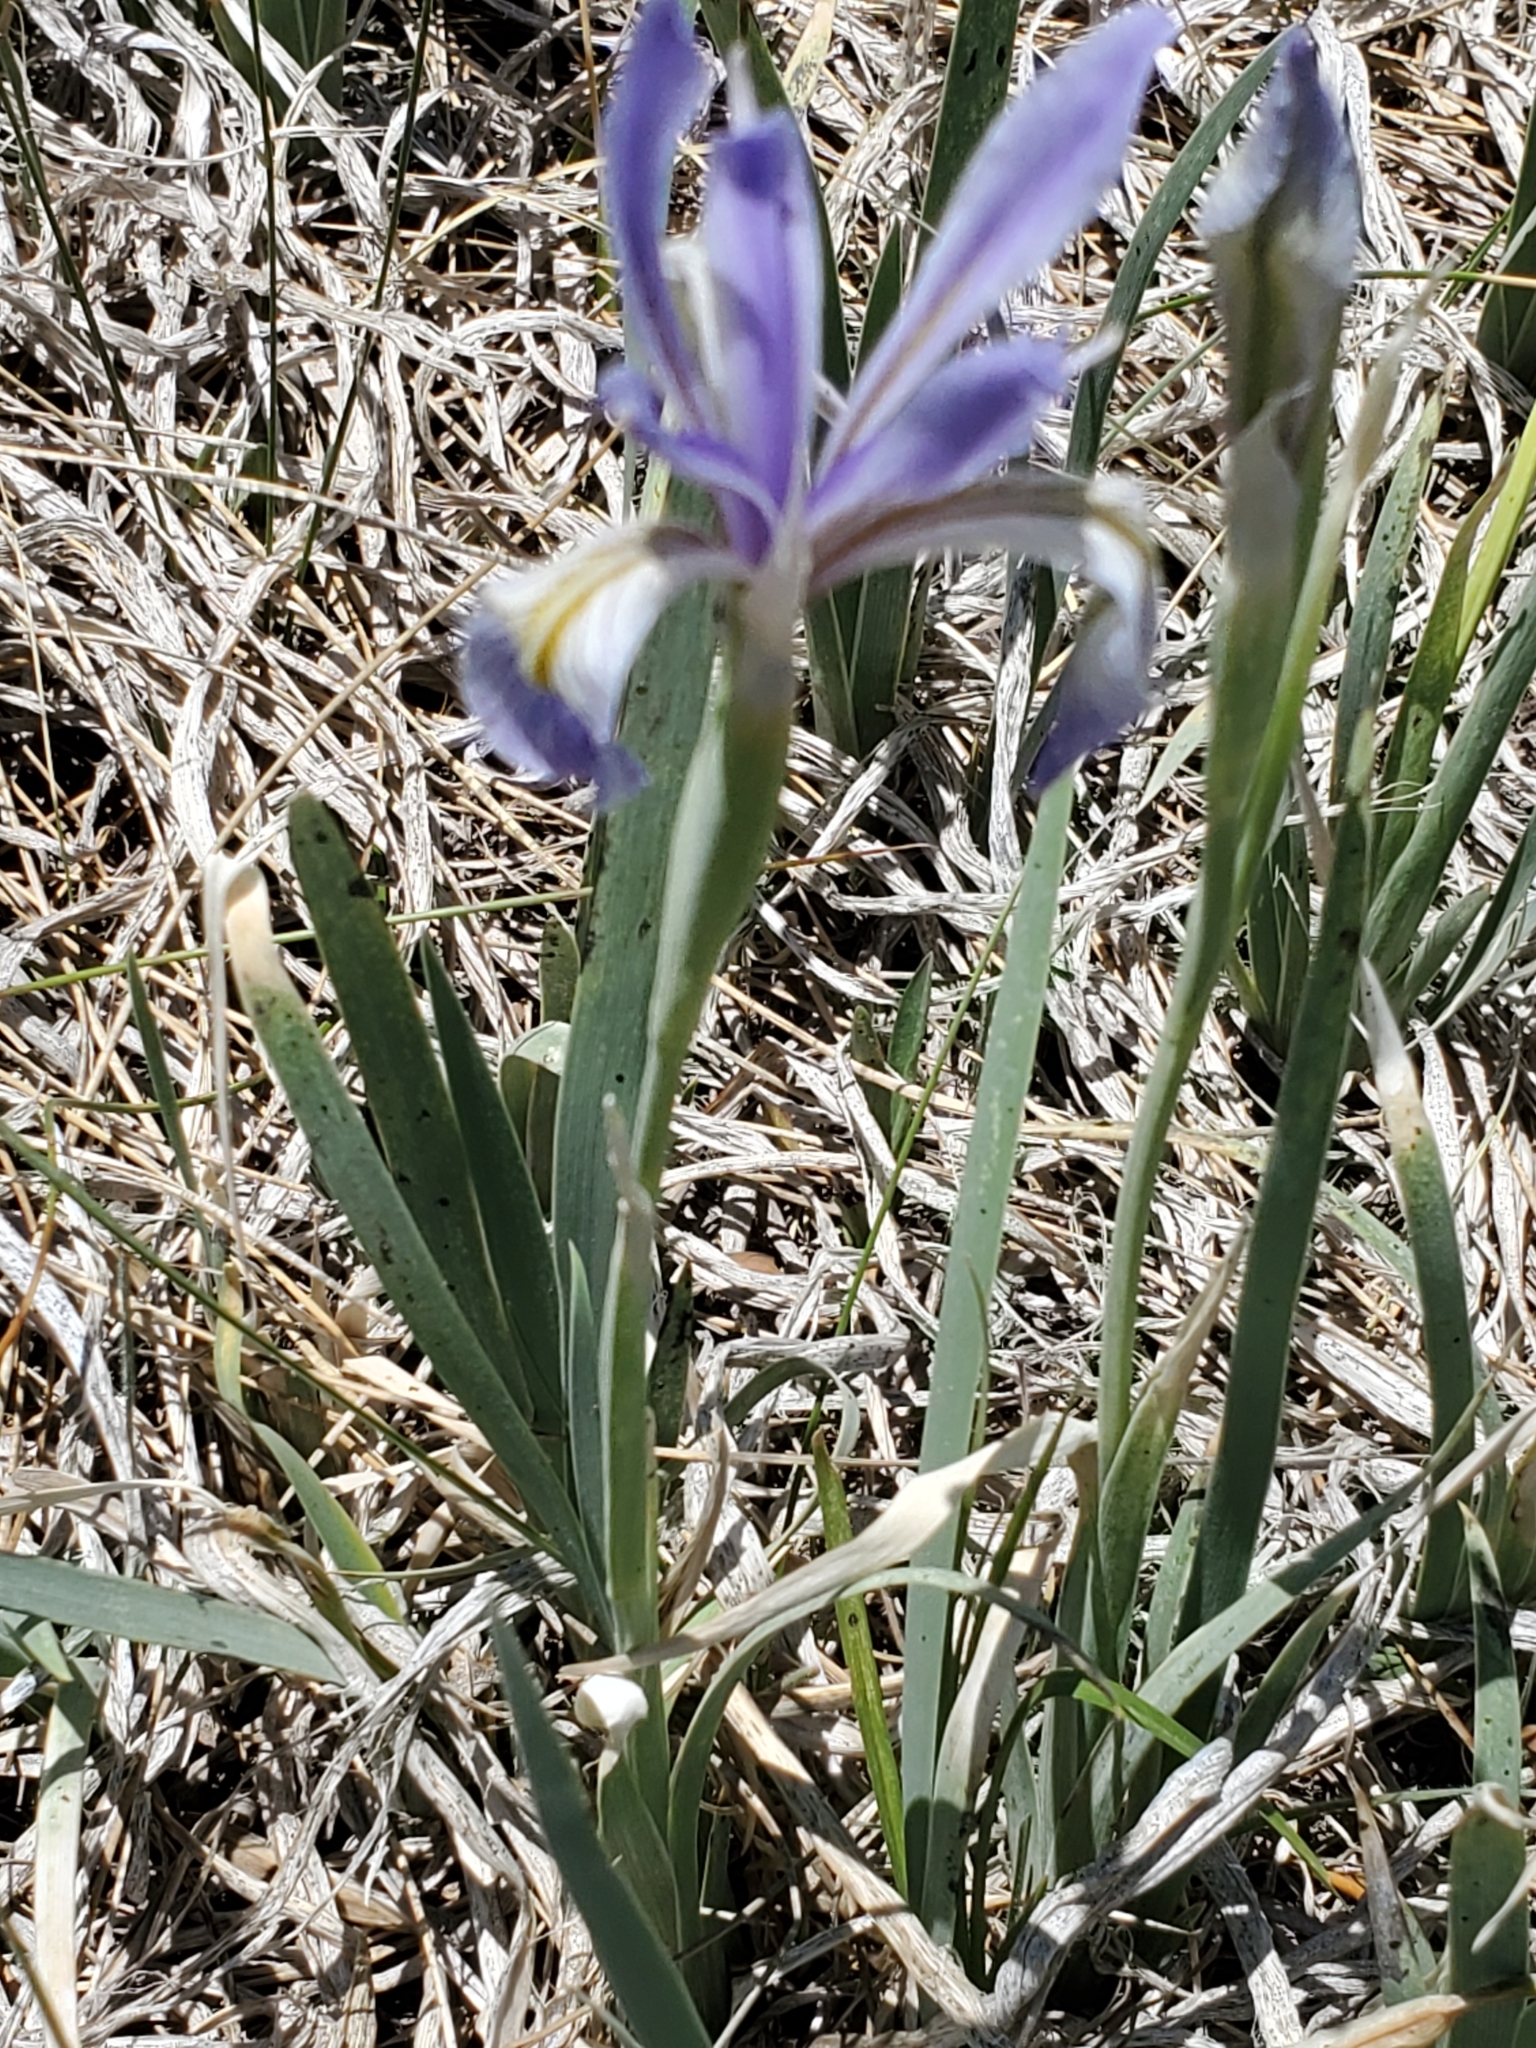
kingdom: Plantae
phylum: Tracheophyta
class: Liliopsida
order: Asparagales
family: Iridaceae
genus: Iris
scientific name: Iris missouriensis
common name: Rocky mountain iris
